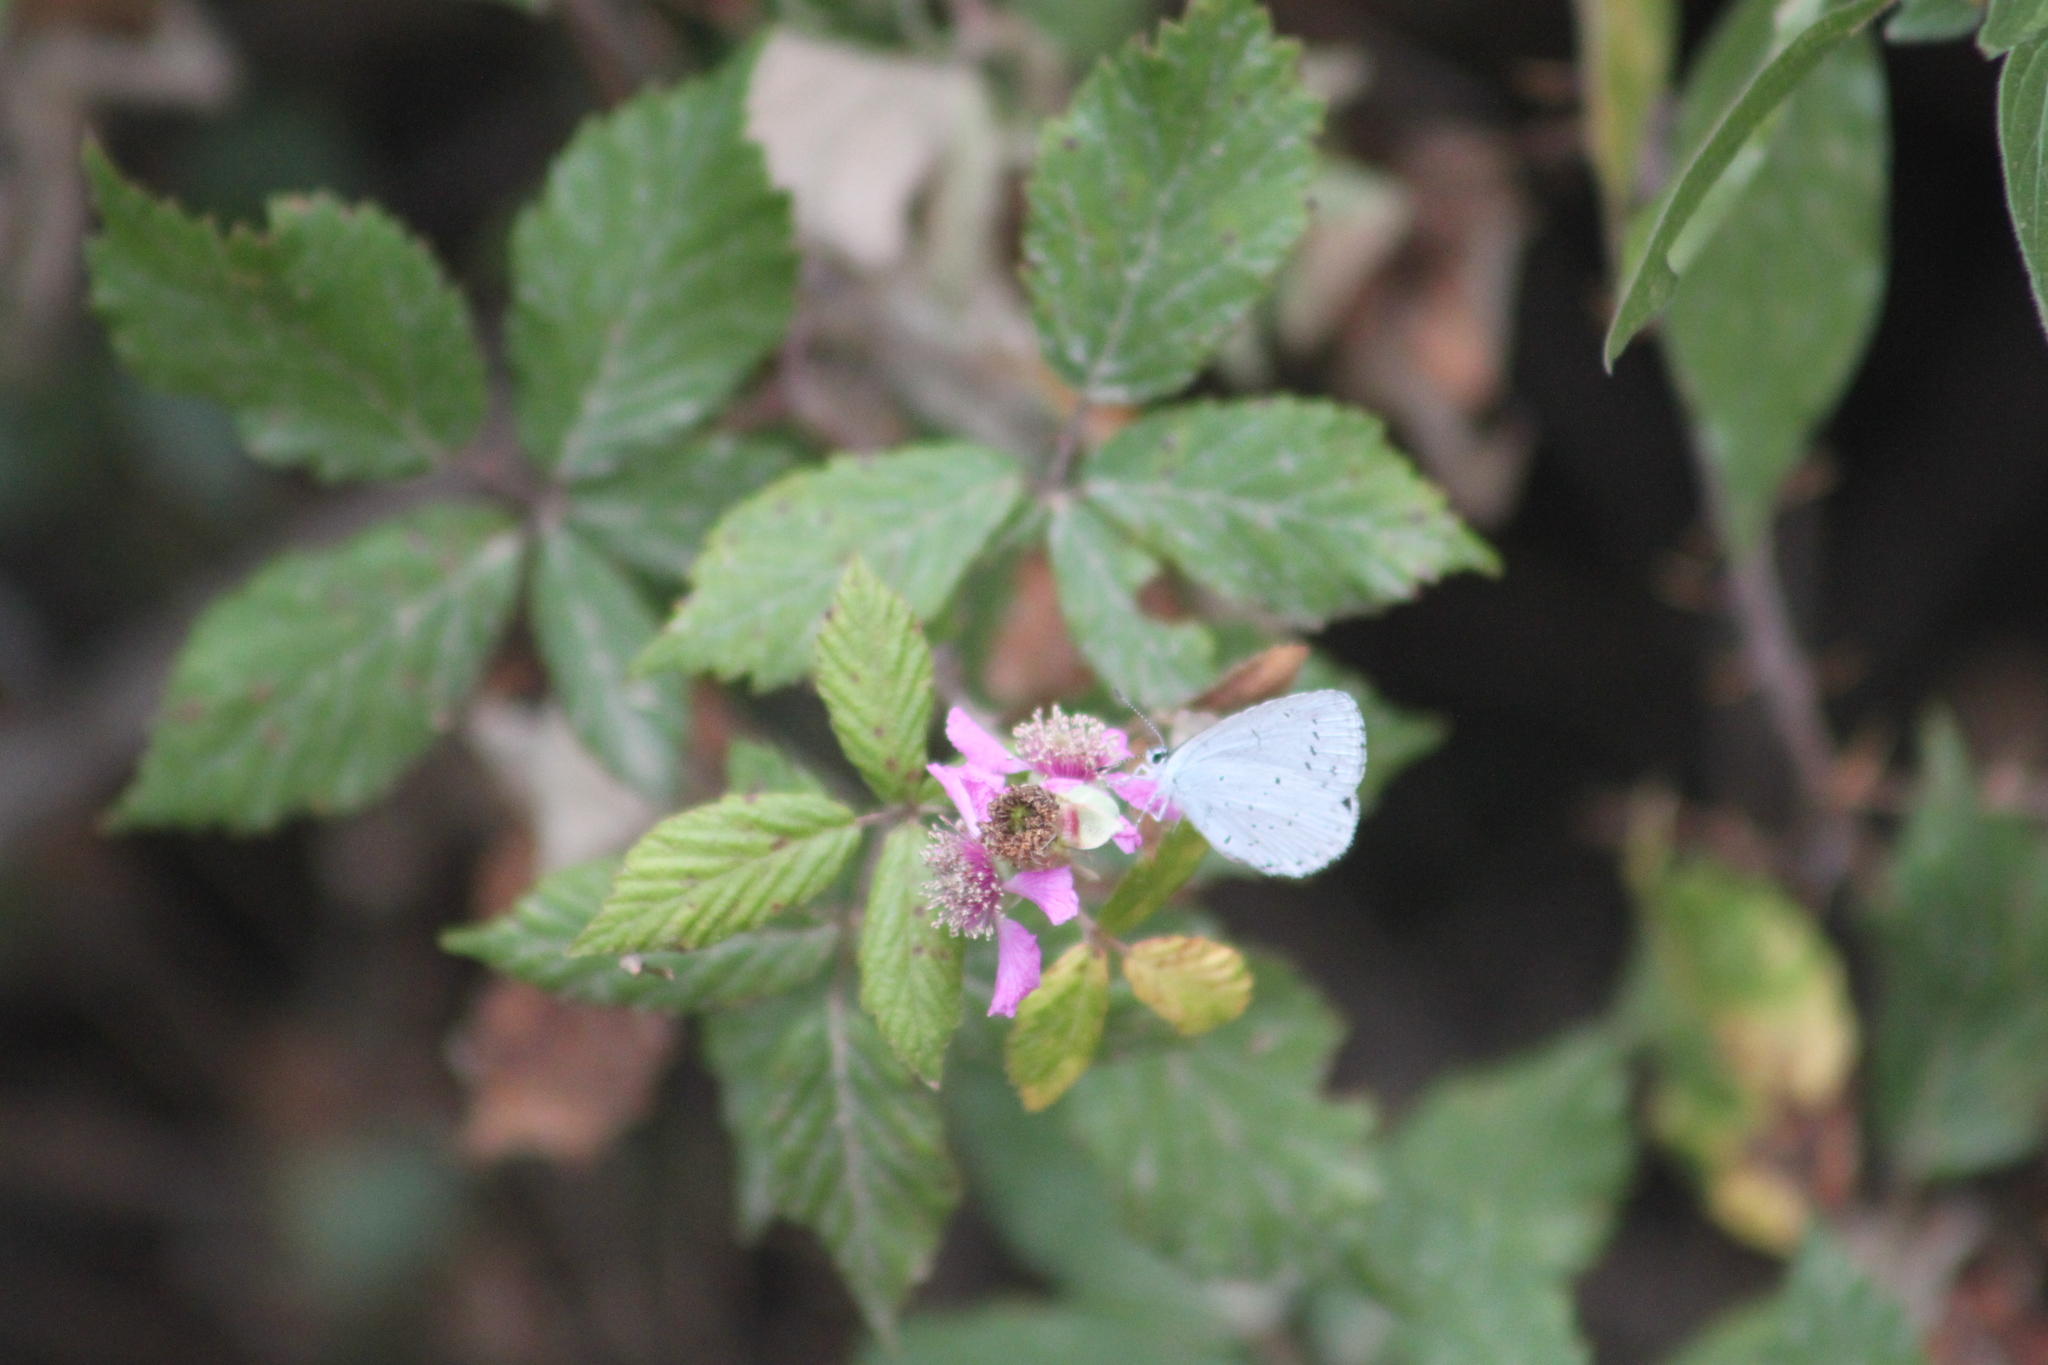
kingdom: Animalia
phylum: Arthropoda
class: Insecta
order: Lepidoptera
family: Lycaenidae
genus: Celastrina
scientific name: Celastrina argiolus
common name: Holly blue
